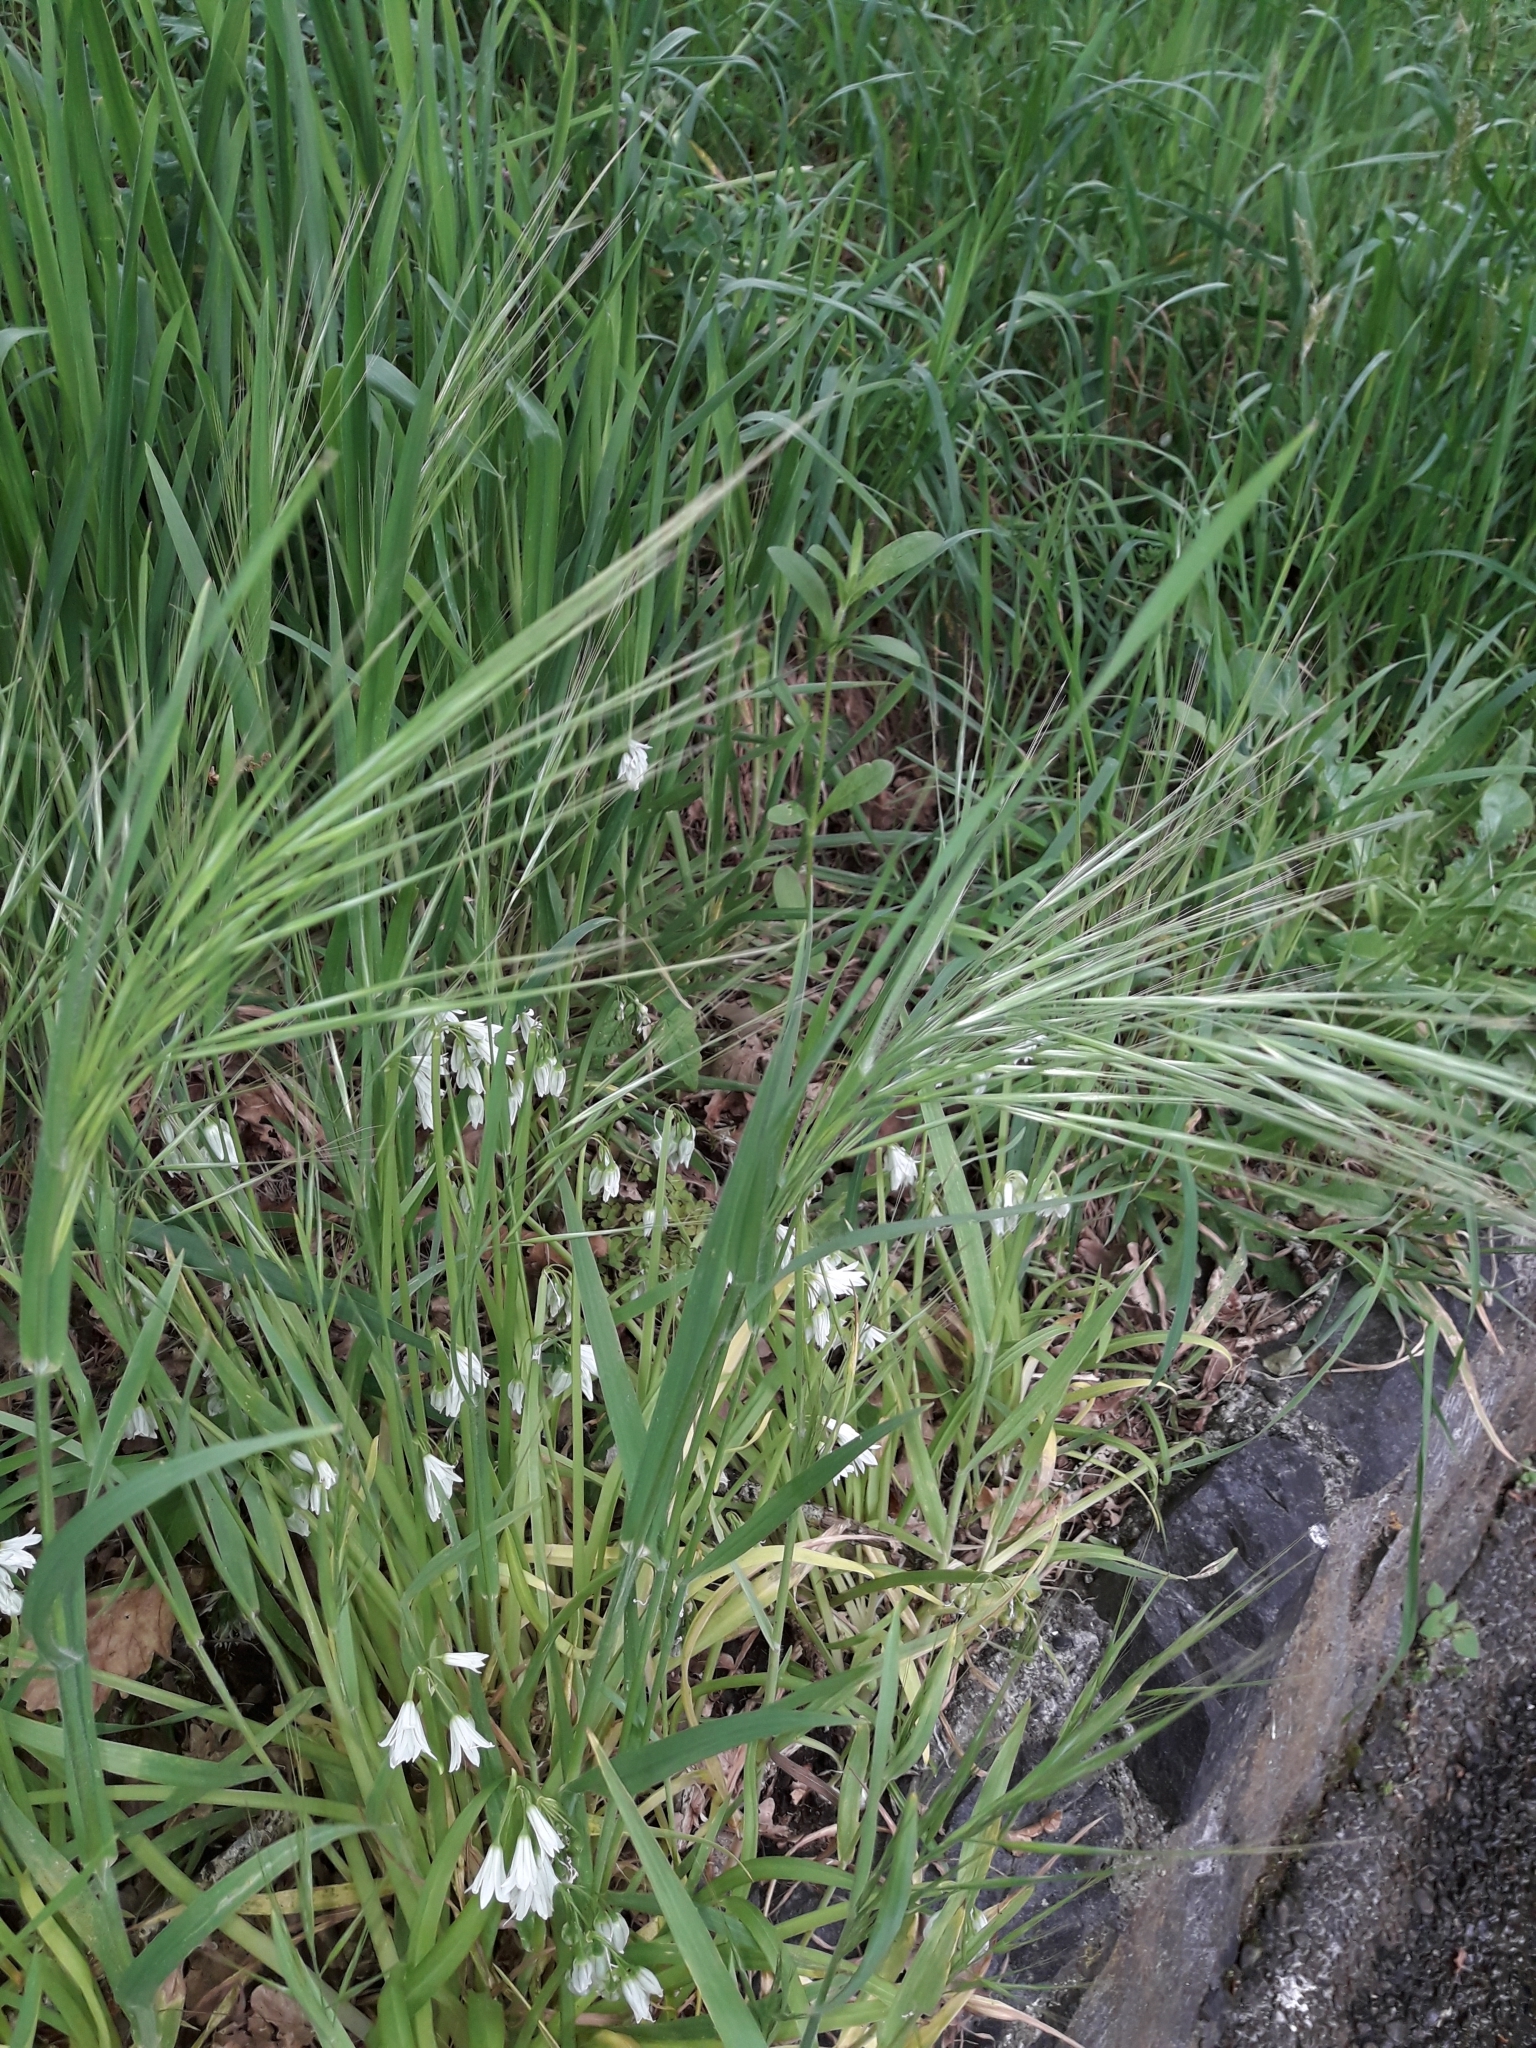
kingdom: Plantae
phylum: Tracheophyta
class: Liliopsida
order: Poales
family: Poaceae
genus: Bromus
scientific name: Bromus diandrus
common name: Ripgut brome
